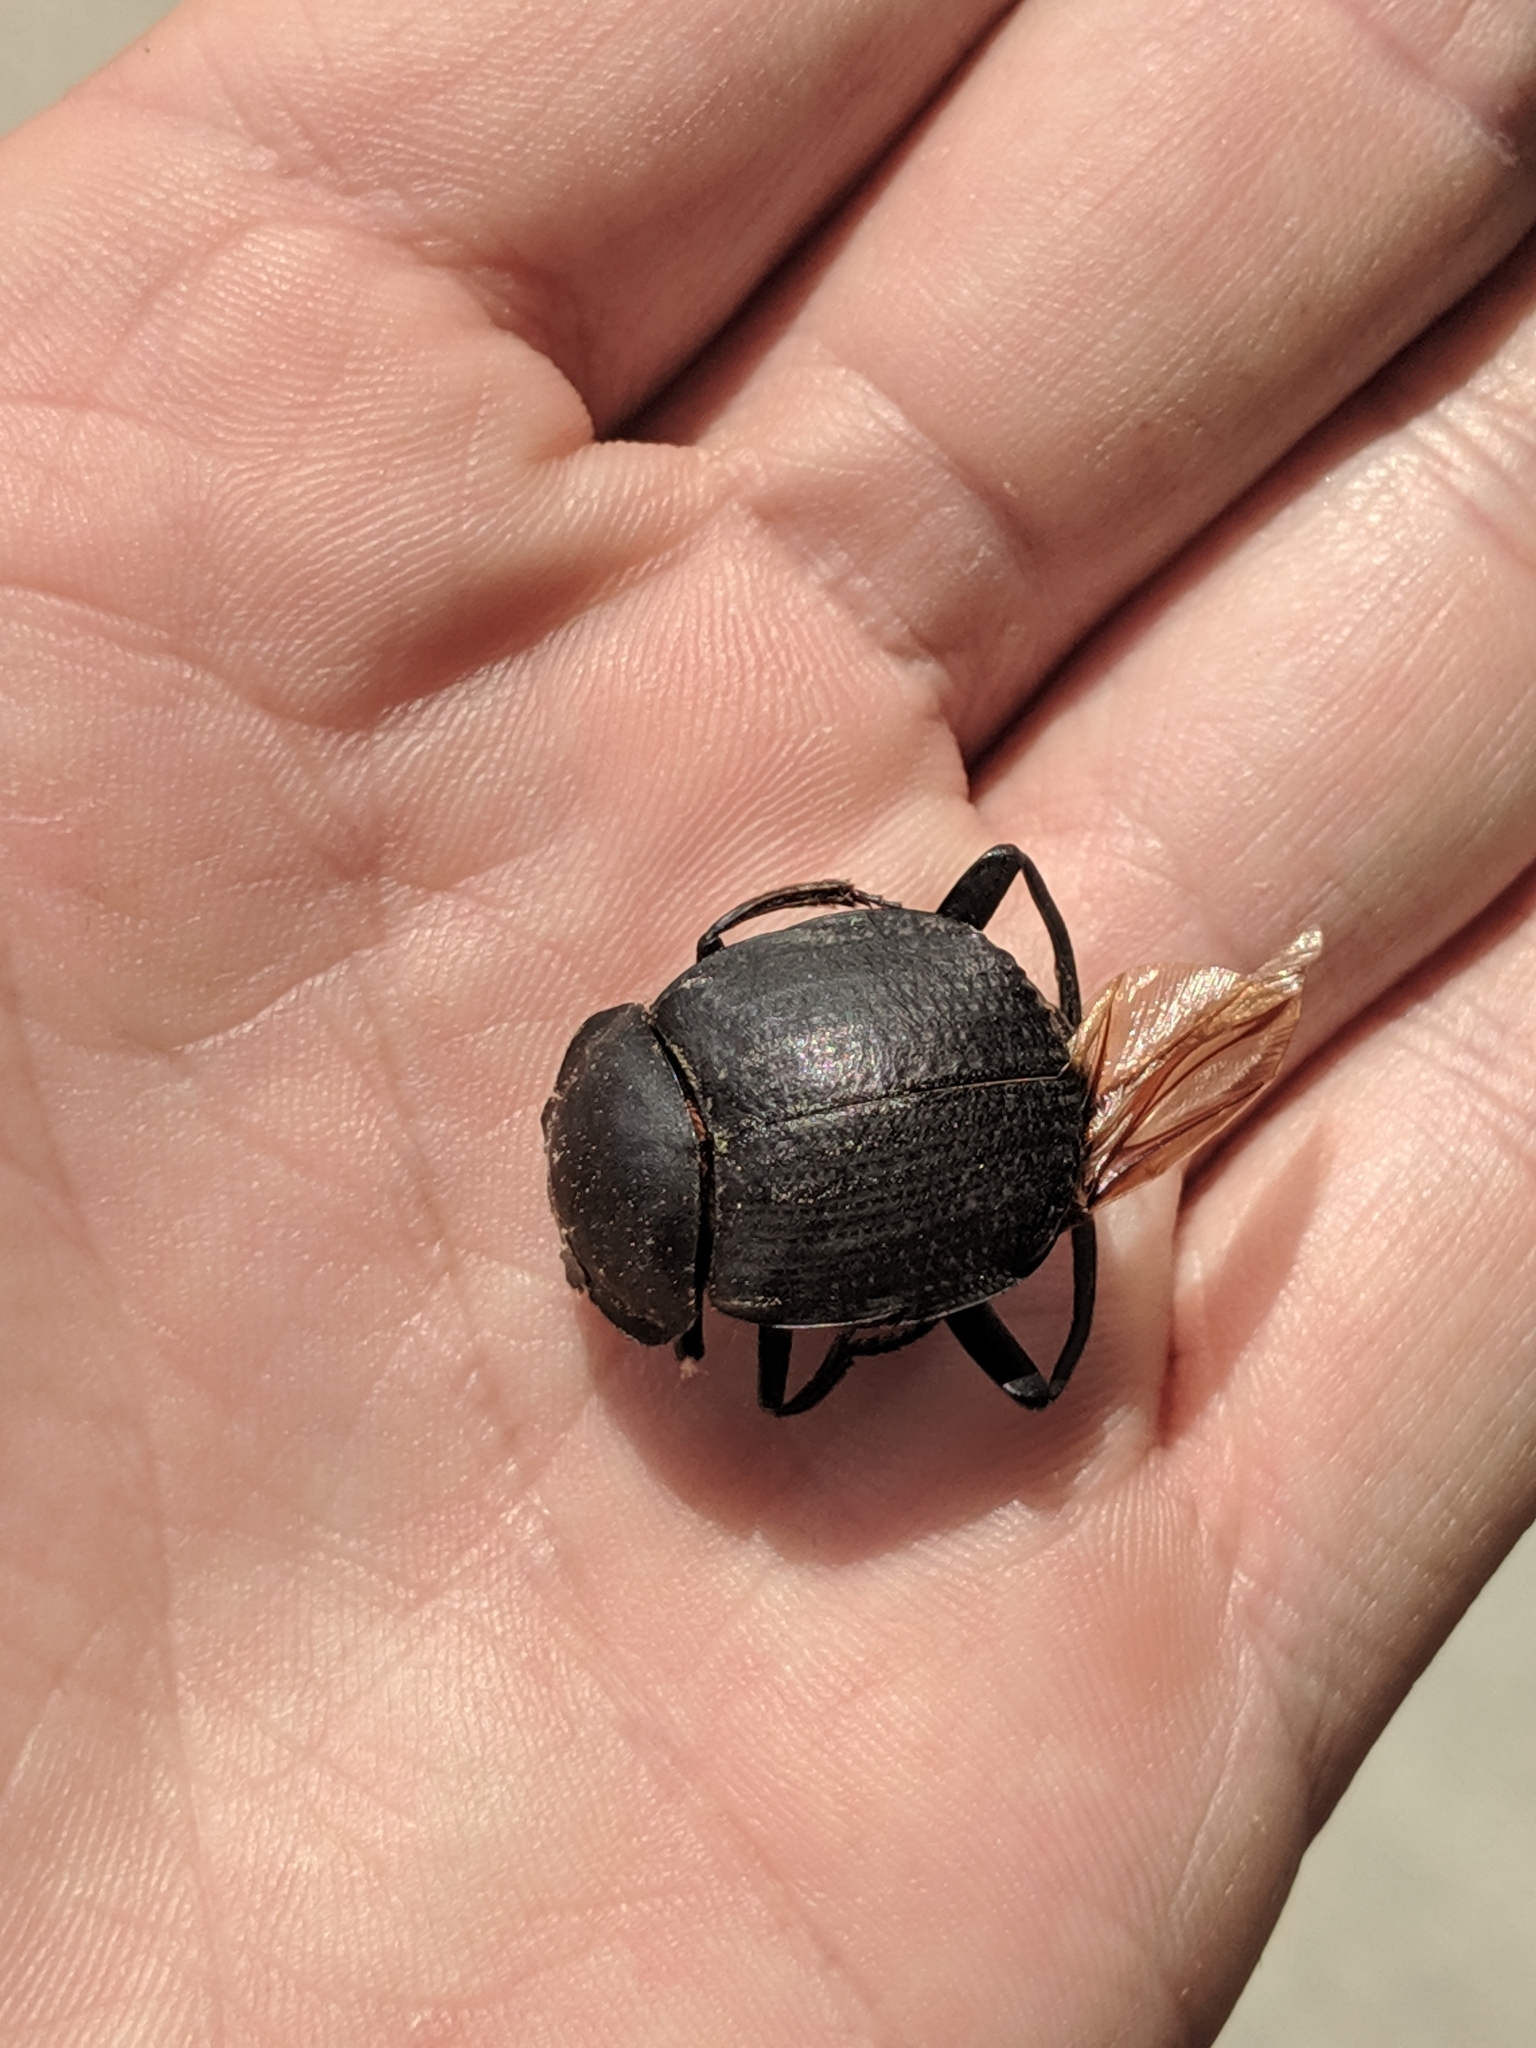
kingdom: Animalia
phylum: Arthropoda
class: Insecta
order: Coleoptera
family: Scarabaeidae
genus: Deltochilum
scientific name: Deltochilum gibbosum
